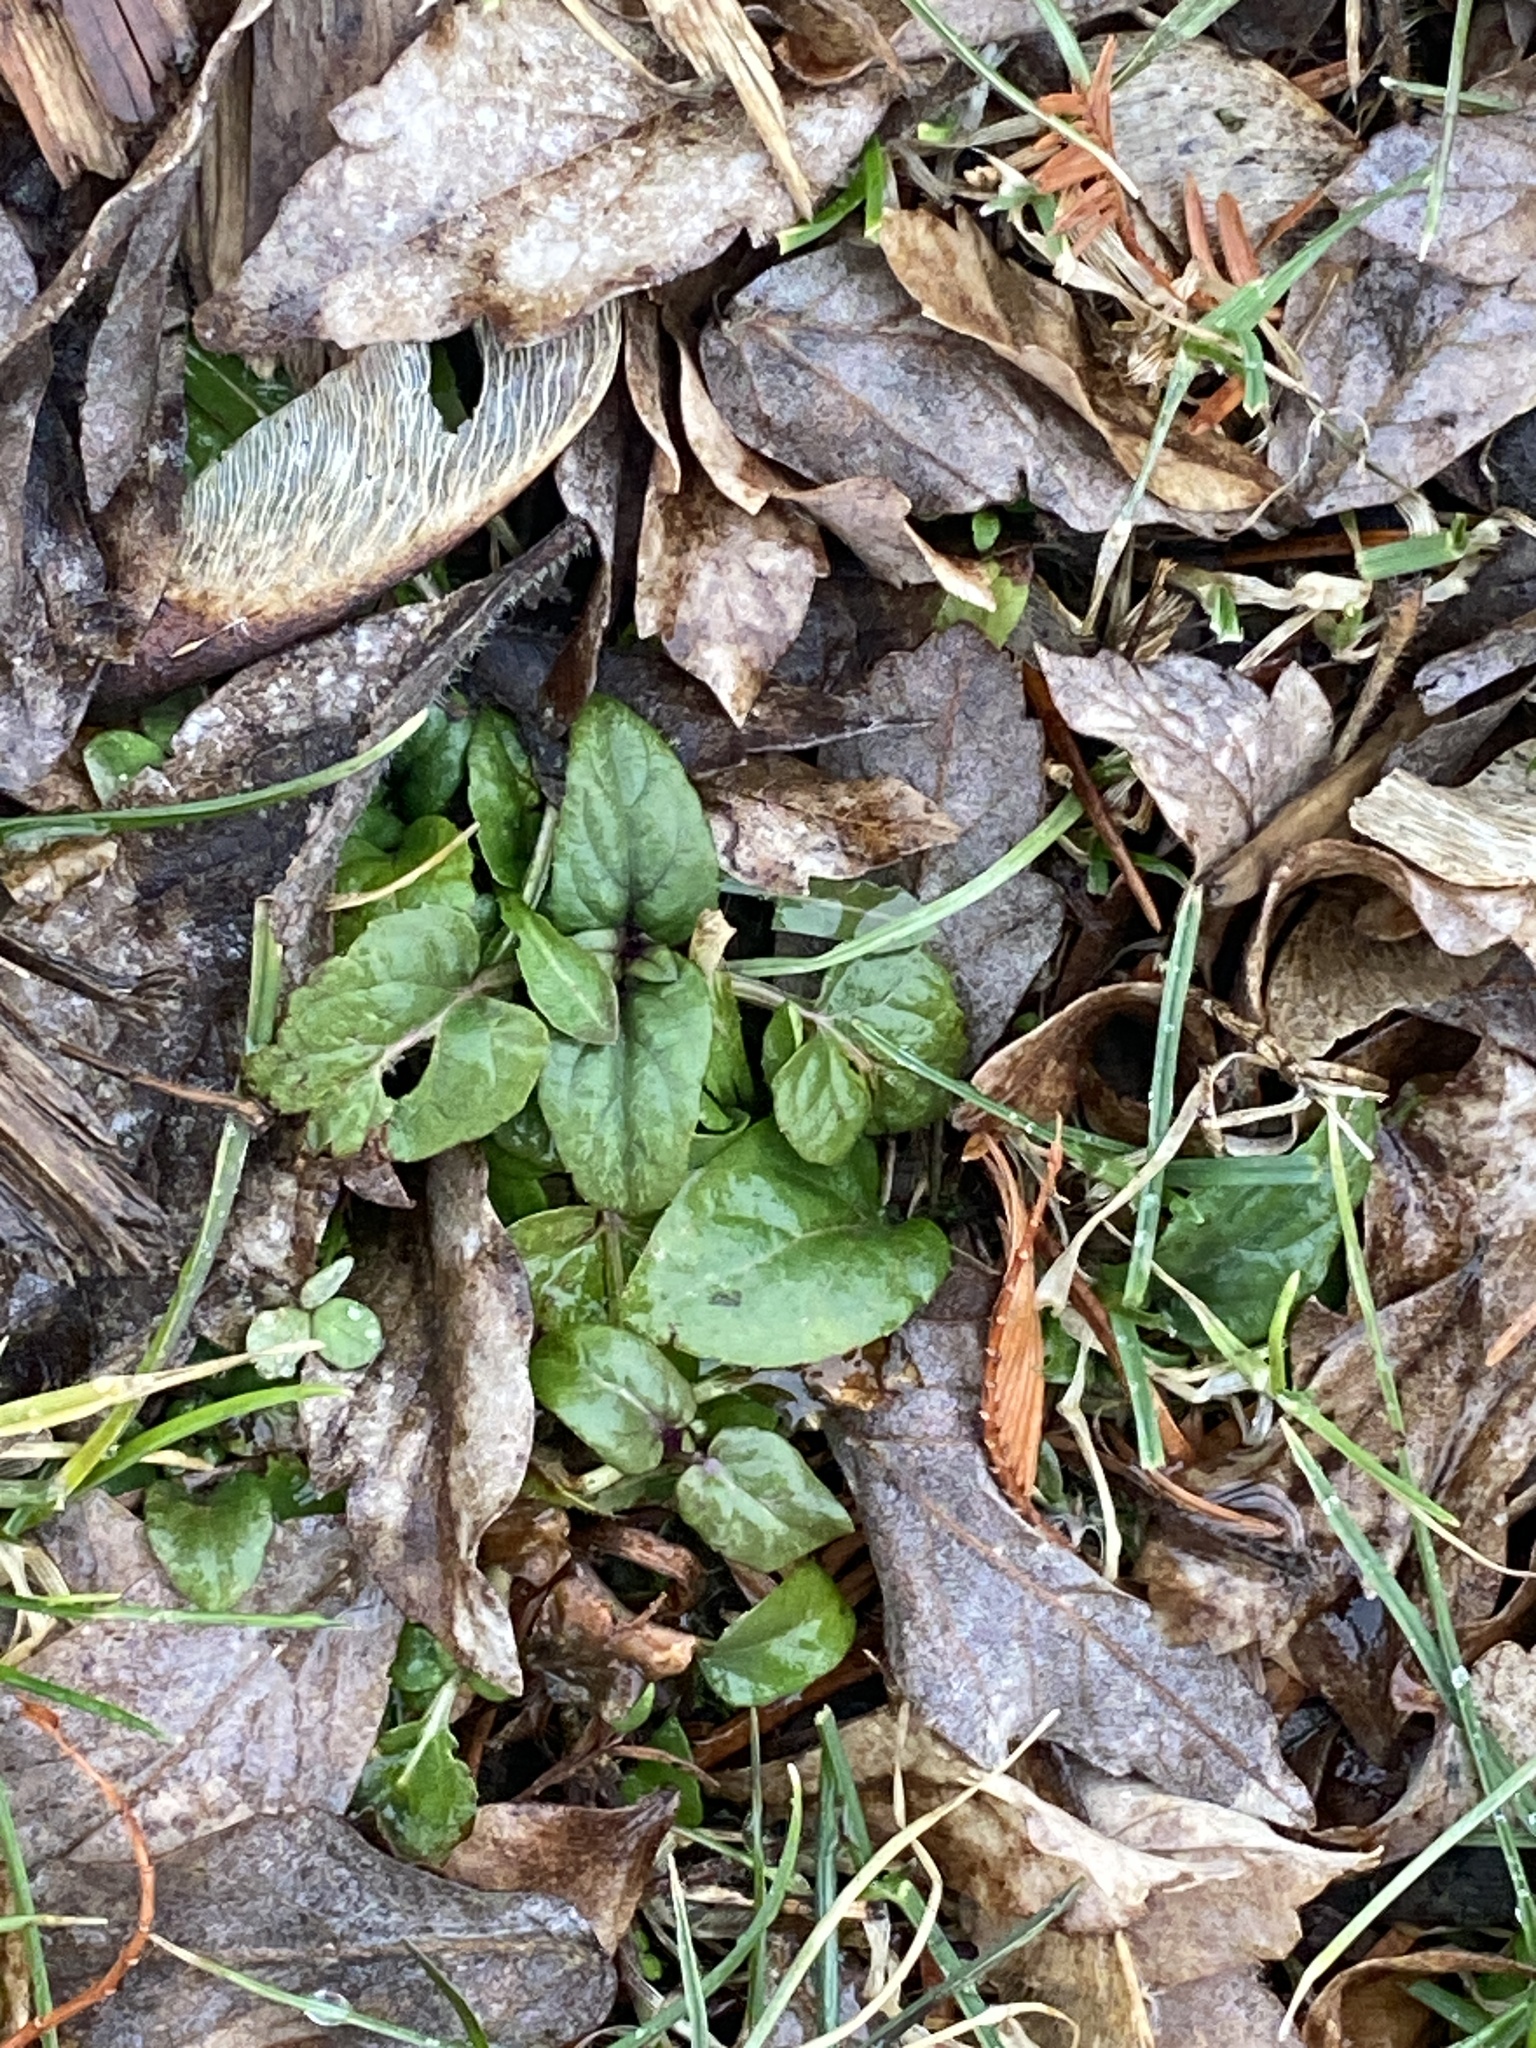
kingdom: Plantae
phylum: Tracheophyta
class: Magnoliopsida
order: Lamiales
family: Lamiaceae
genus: Prunella
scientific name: Prunella vulgaris
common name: Heal-all
